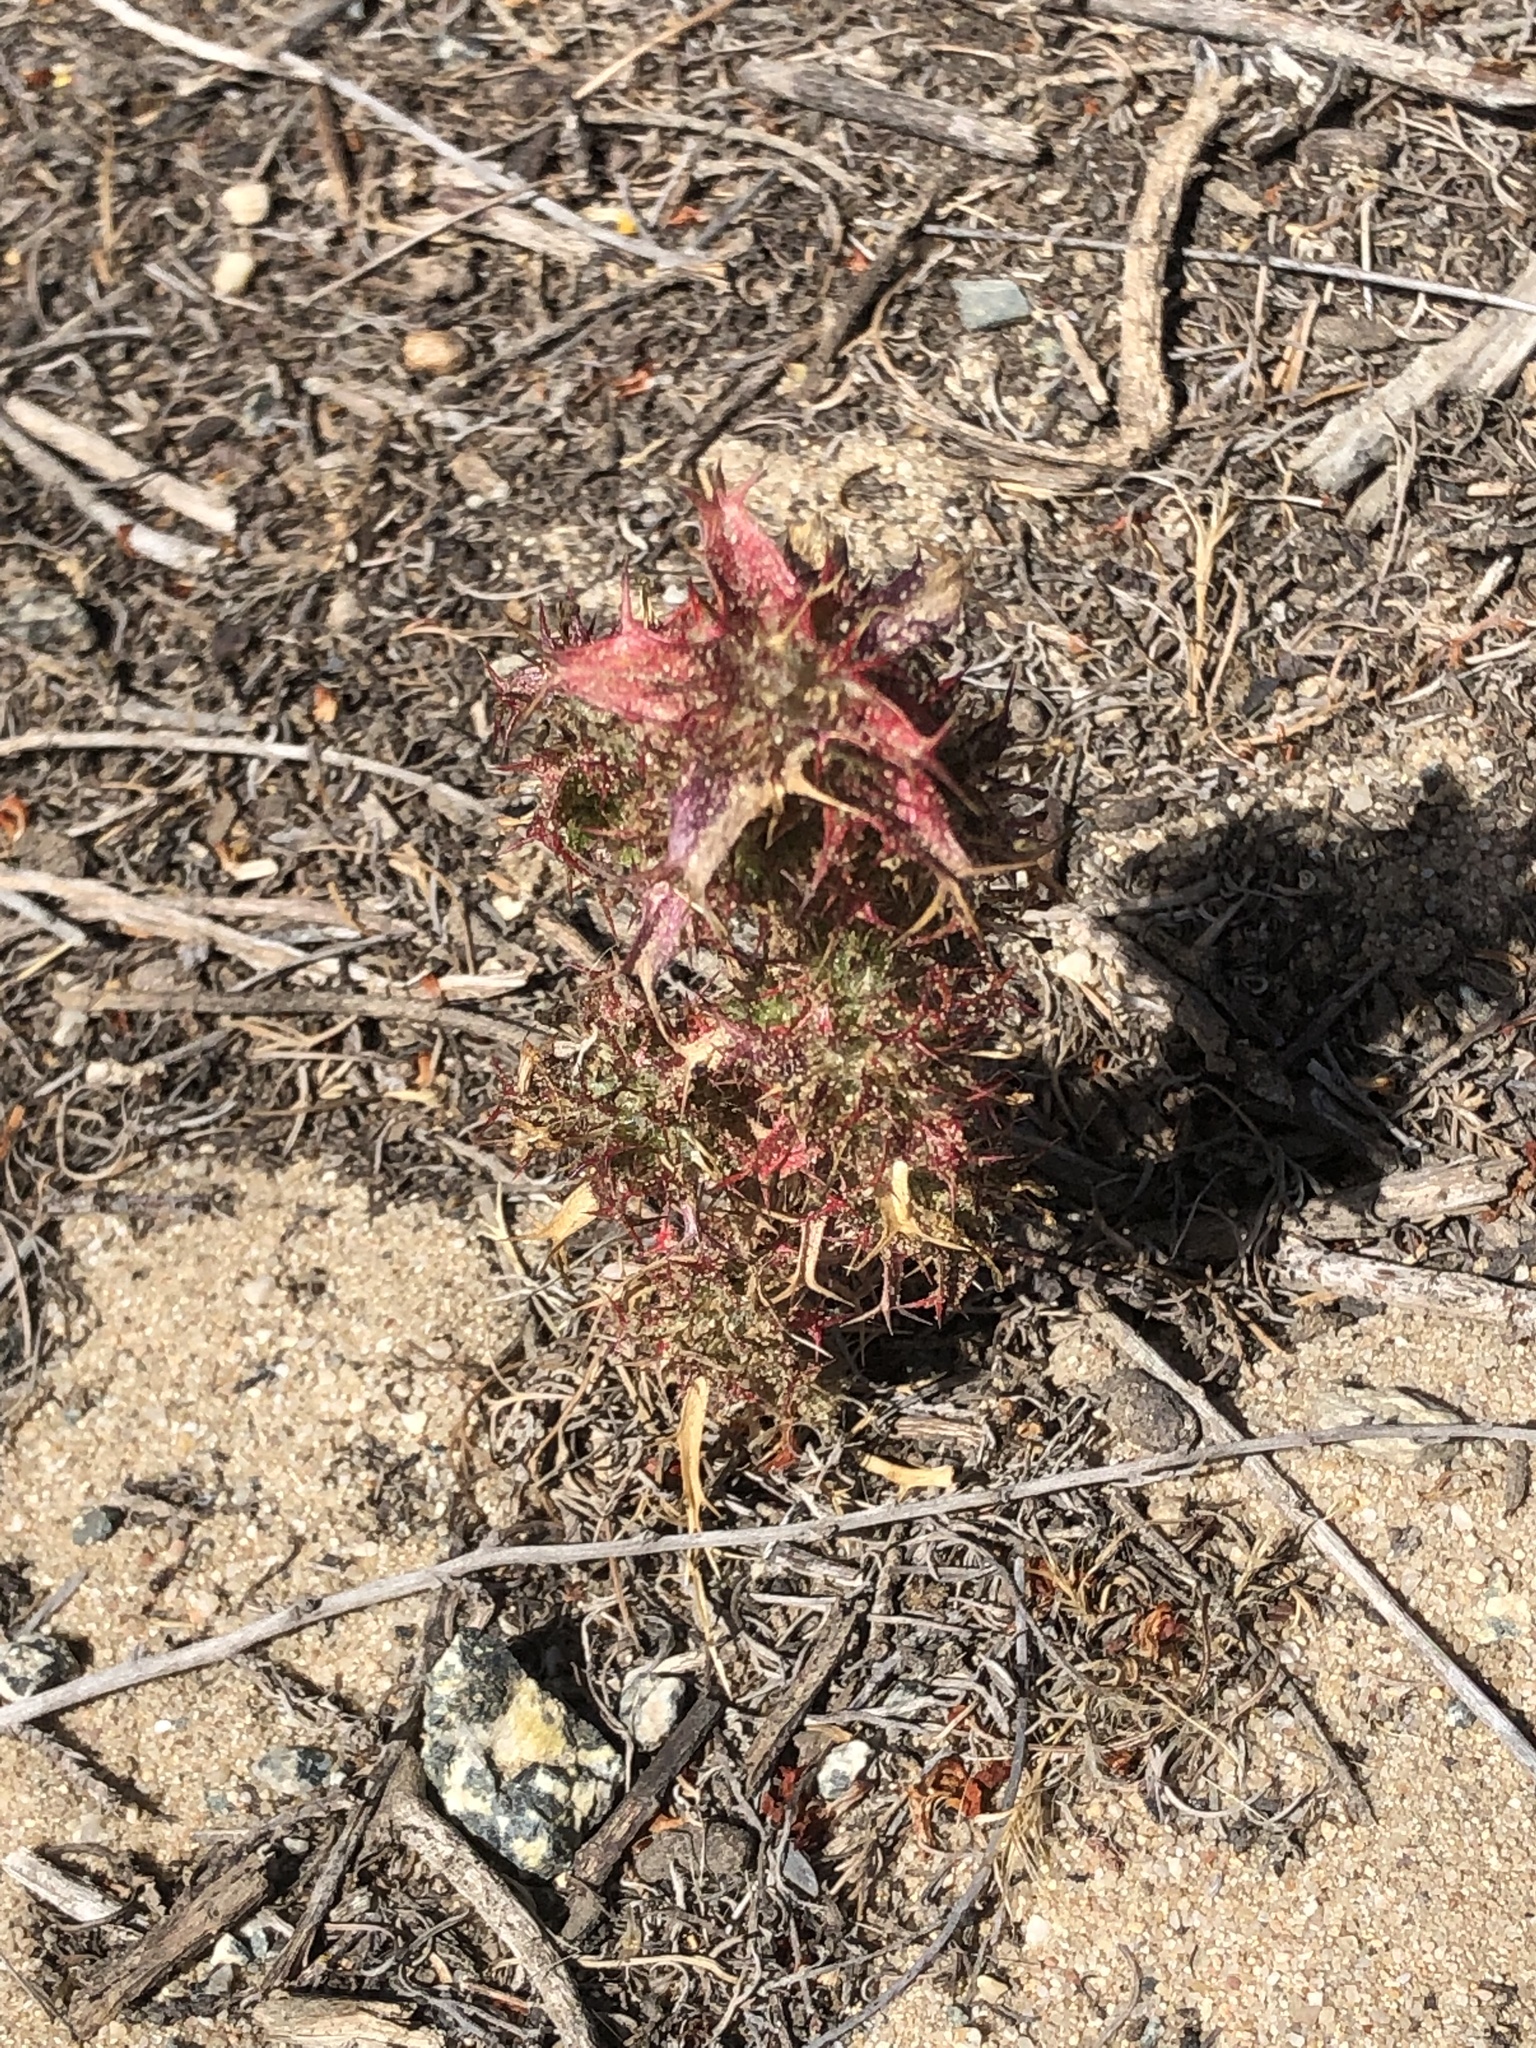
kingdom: Plantae
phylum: Tracheophyta
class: Magnoliopsida
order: Ericales
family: Polemoniaceae
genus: Navarretia
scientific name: Navarretia atractyloides
